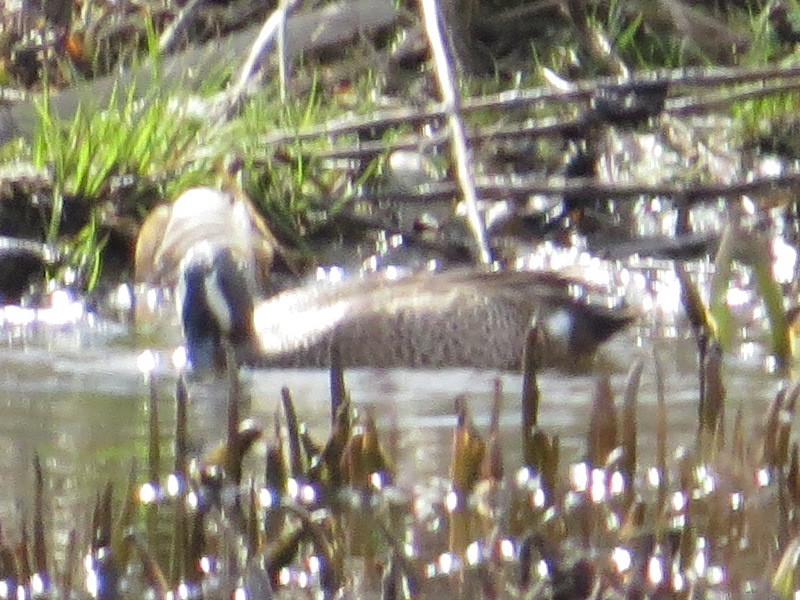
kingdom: Animalia
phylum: Chordata
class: Aves
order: Anseriformes
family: Anatidae
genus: Spatula
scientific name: Spatula discors
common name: Blue-winged teal
